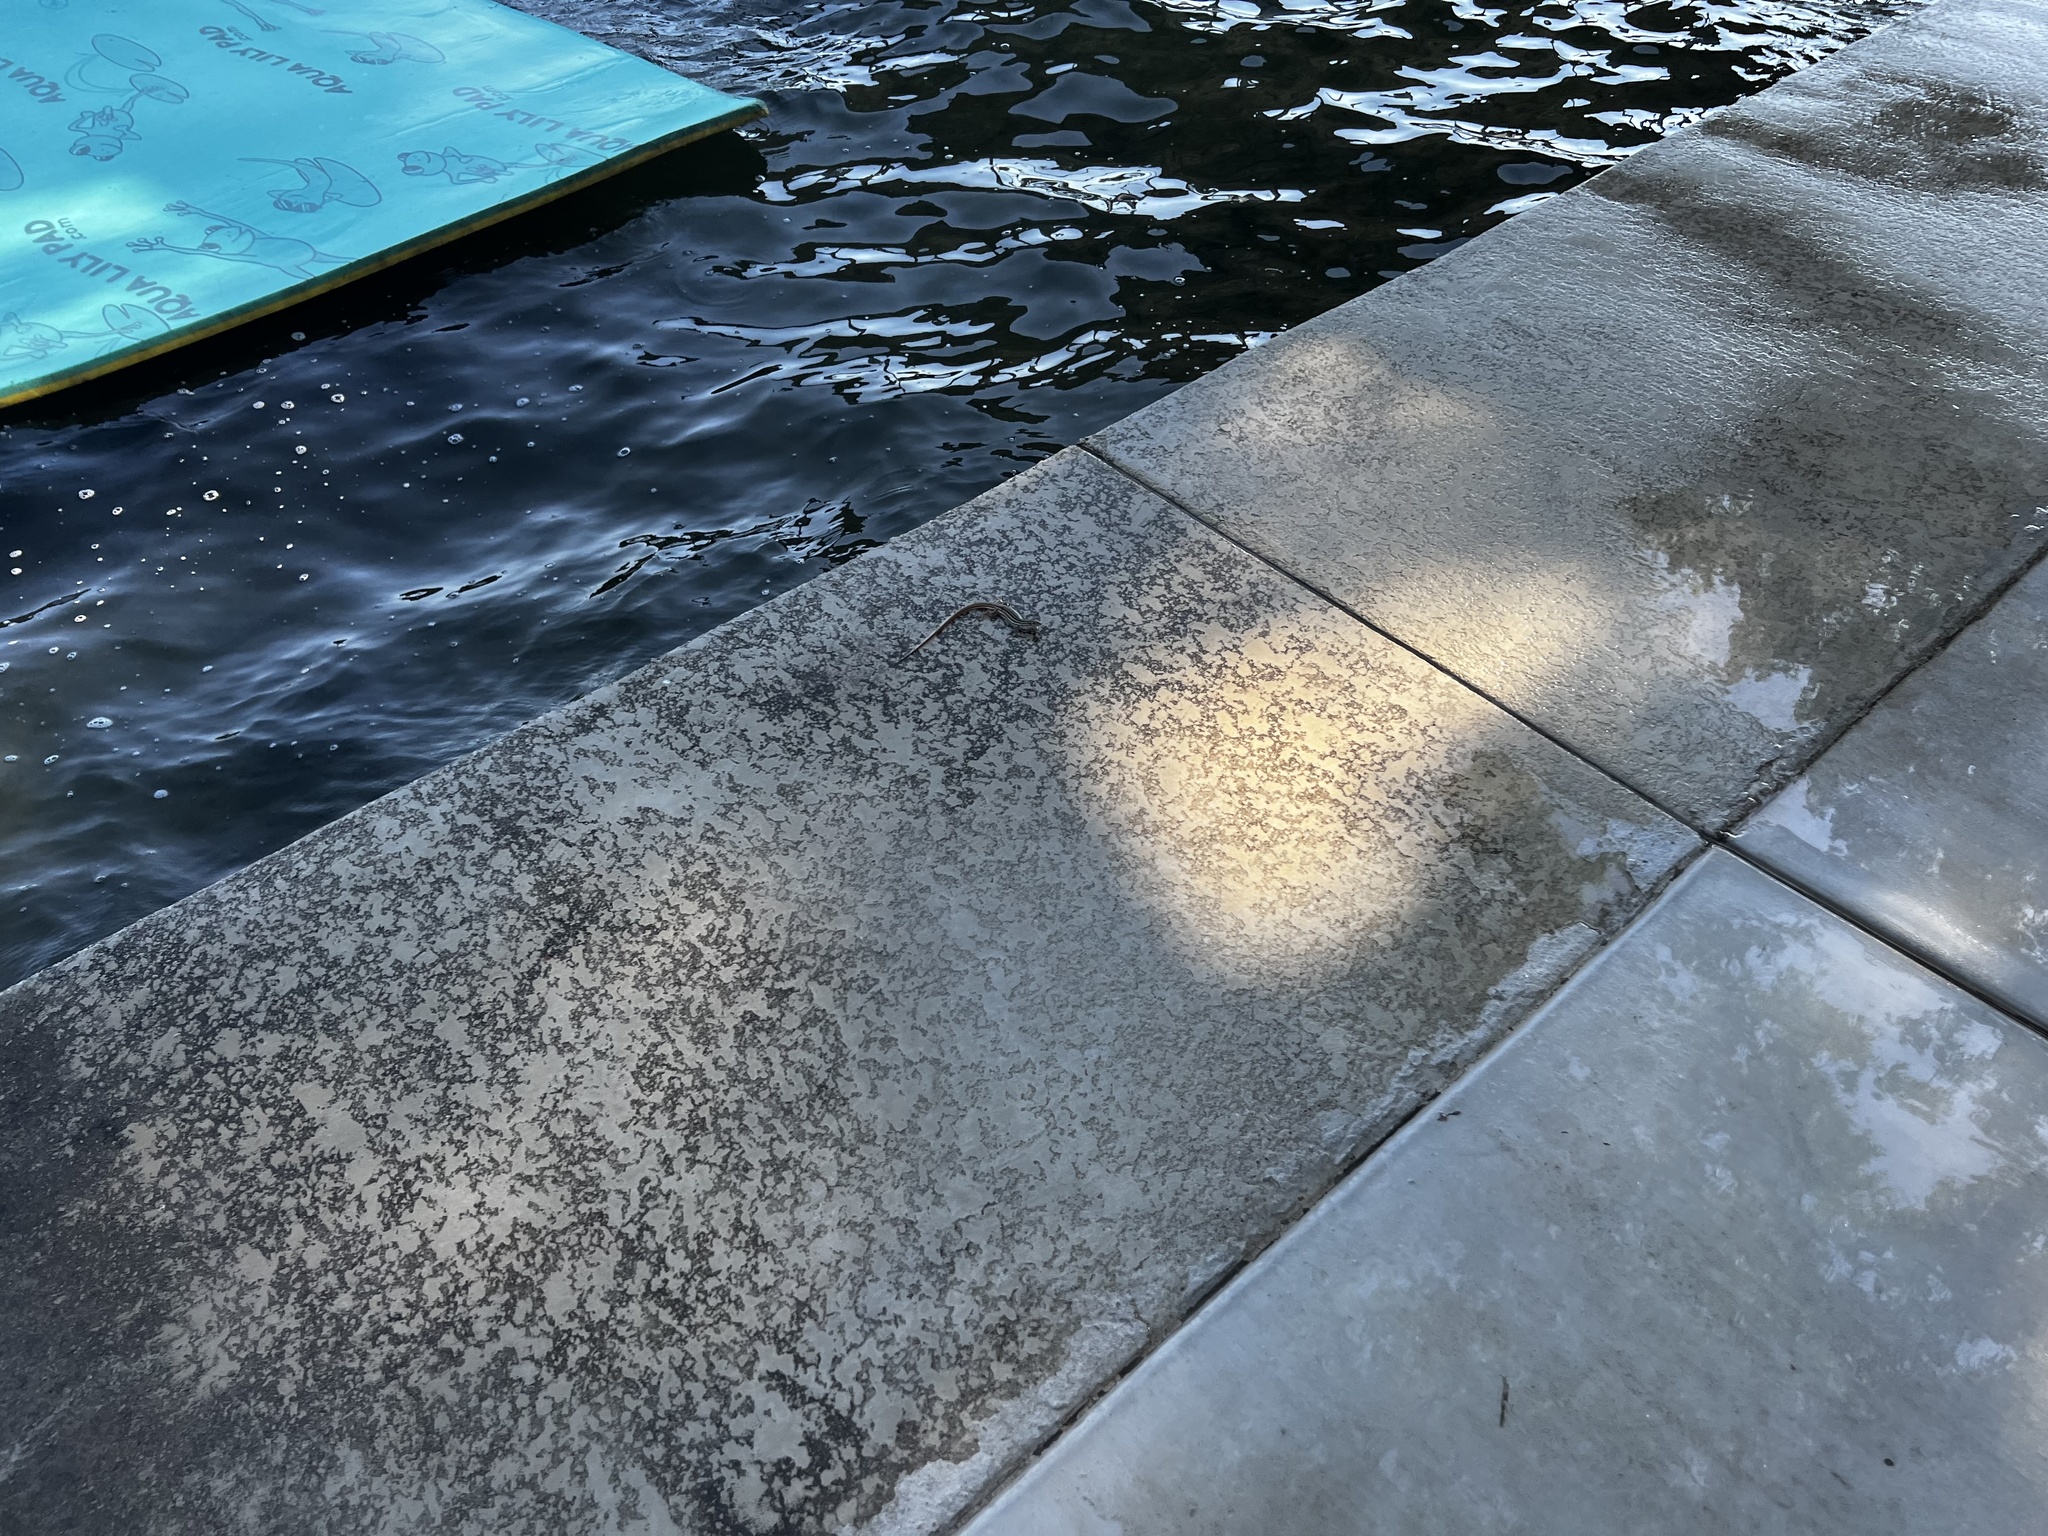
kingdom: Animalia
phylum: Chordata
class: Squamata
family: Teiidae
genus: Aspidoscelis
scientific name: Aspidoscelis gularis
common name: Eastern spotted whiptail
